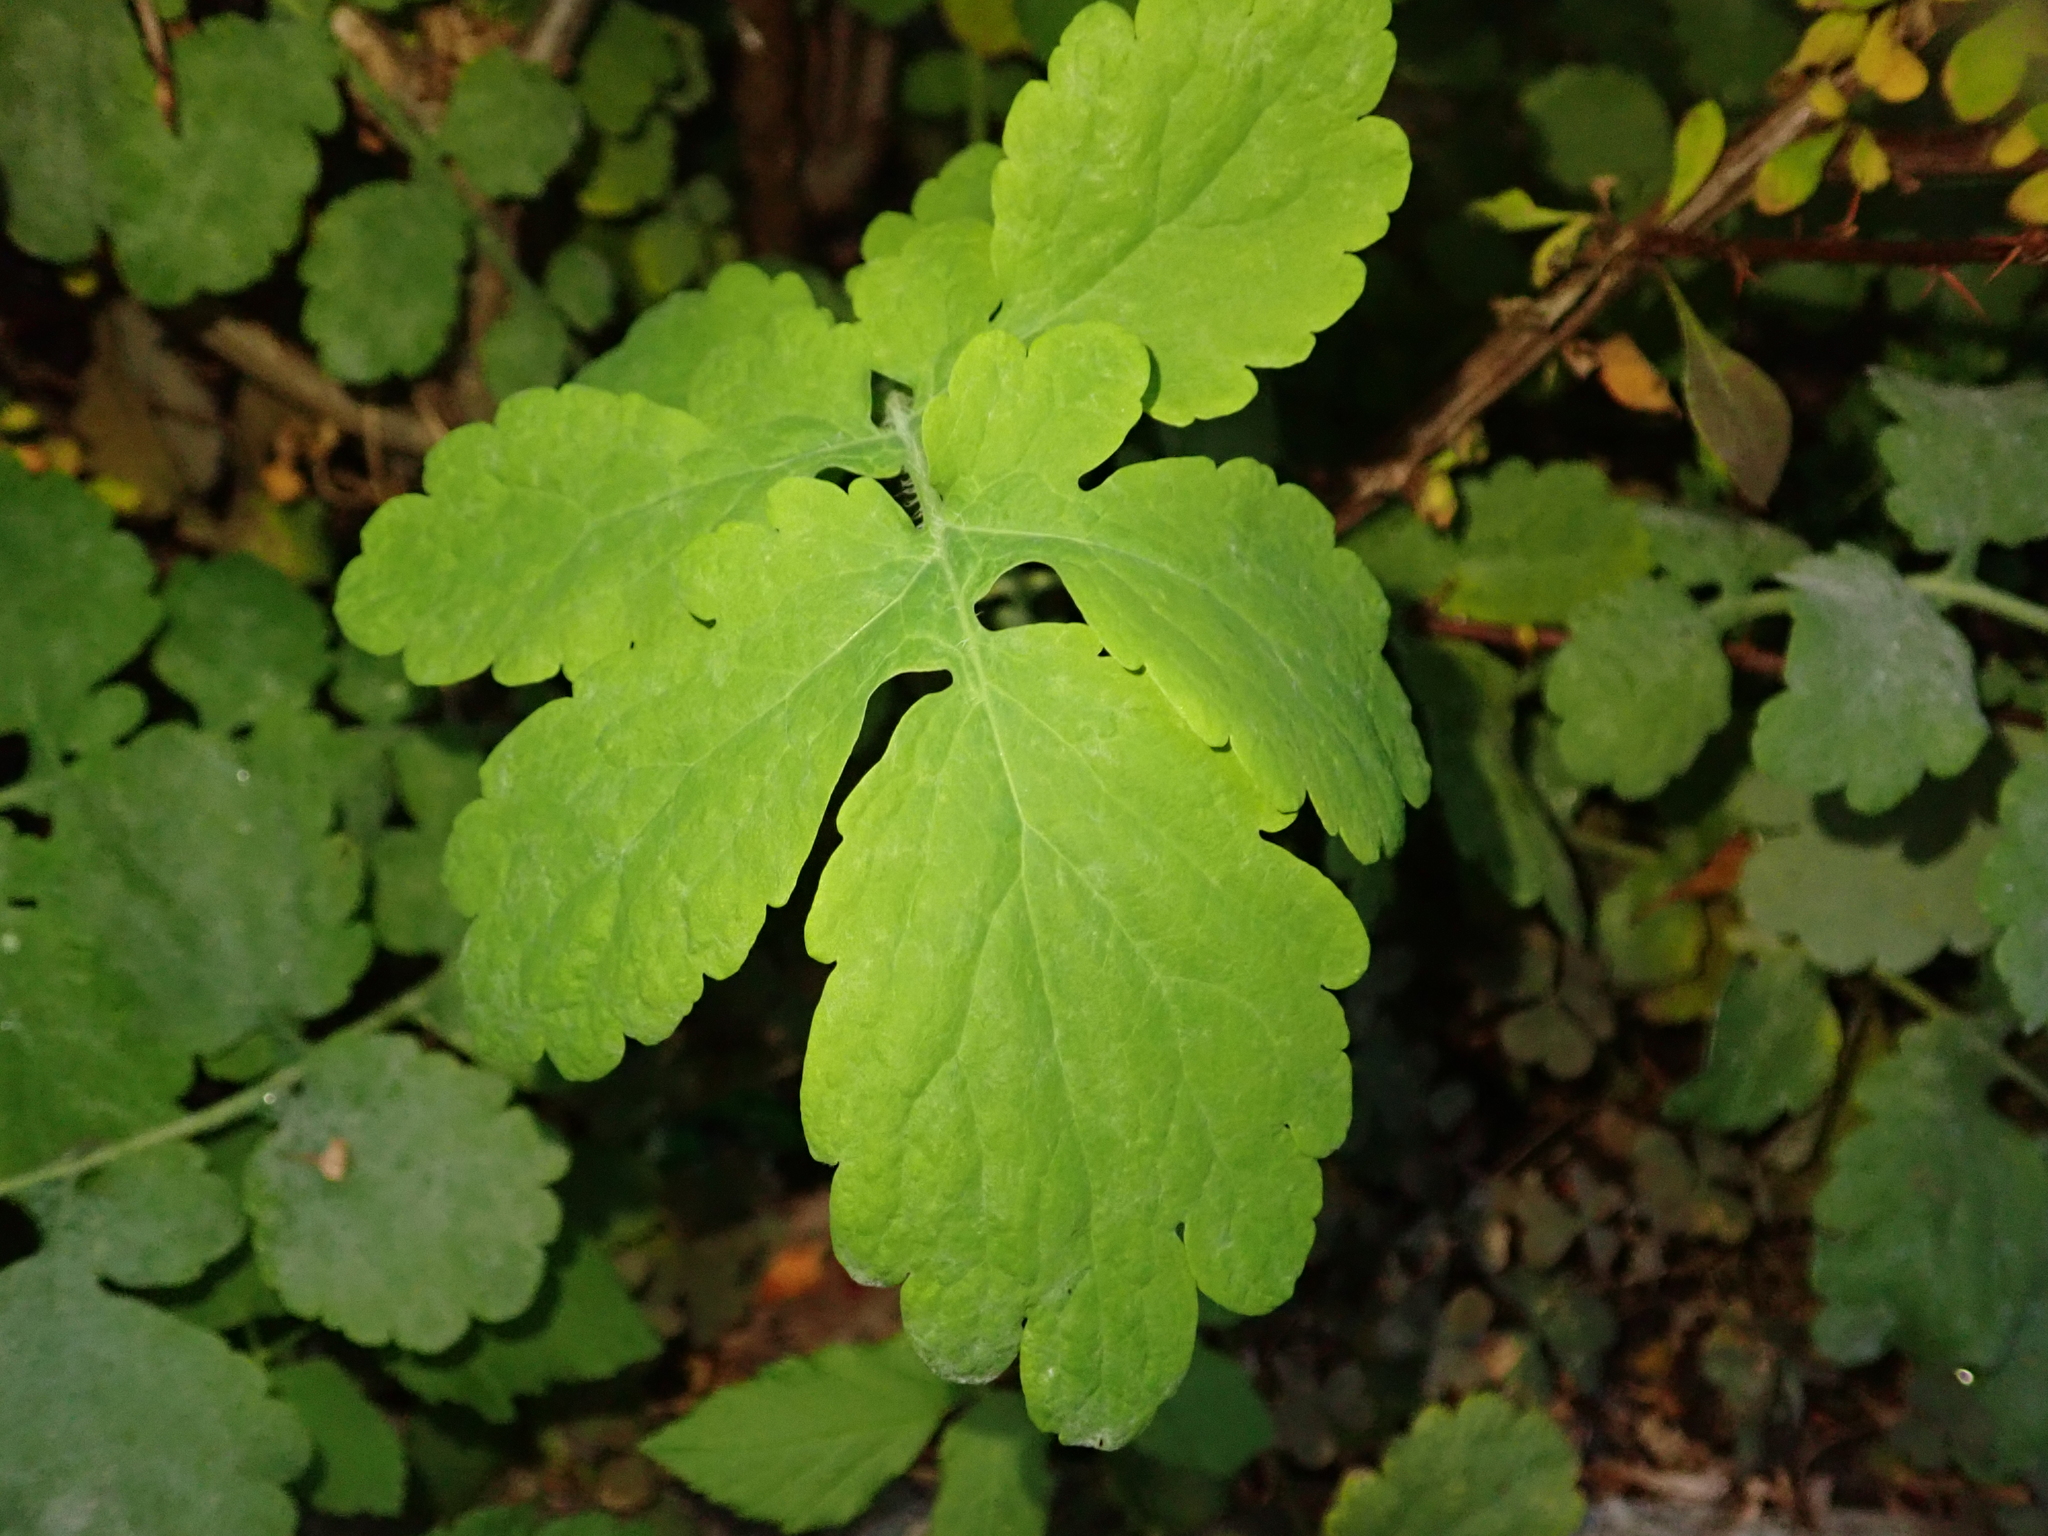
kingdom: Plantae
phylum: Tracheophyta
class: Magnoliopsida
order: Ranunculales
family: Papaveraceae
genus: Chelidonium
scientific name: Chelidonium majus
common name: Greater celandine
